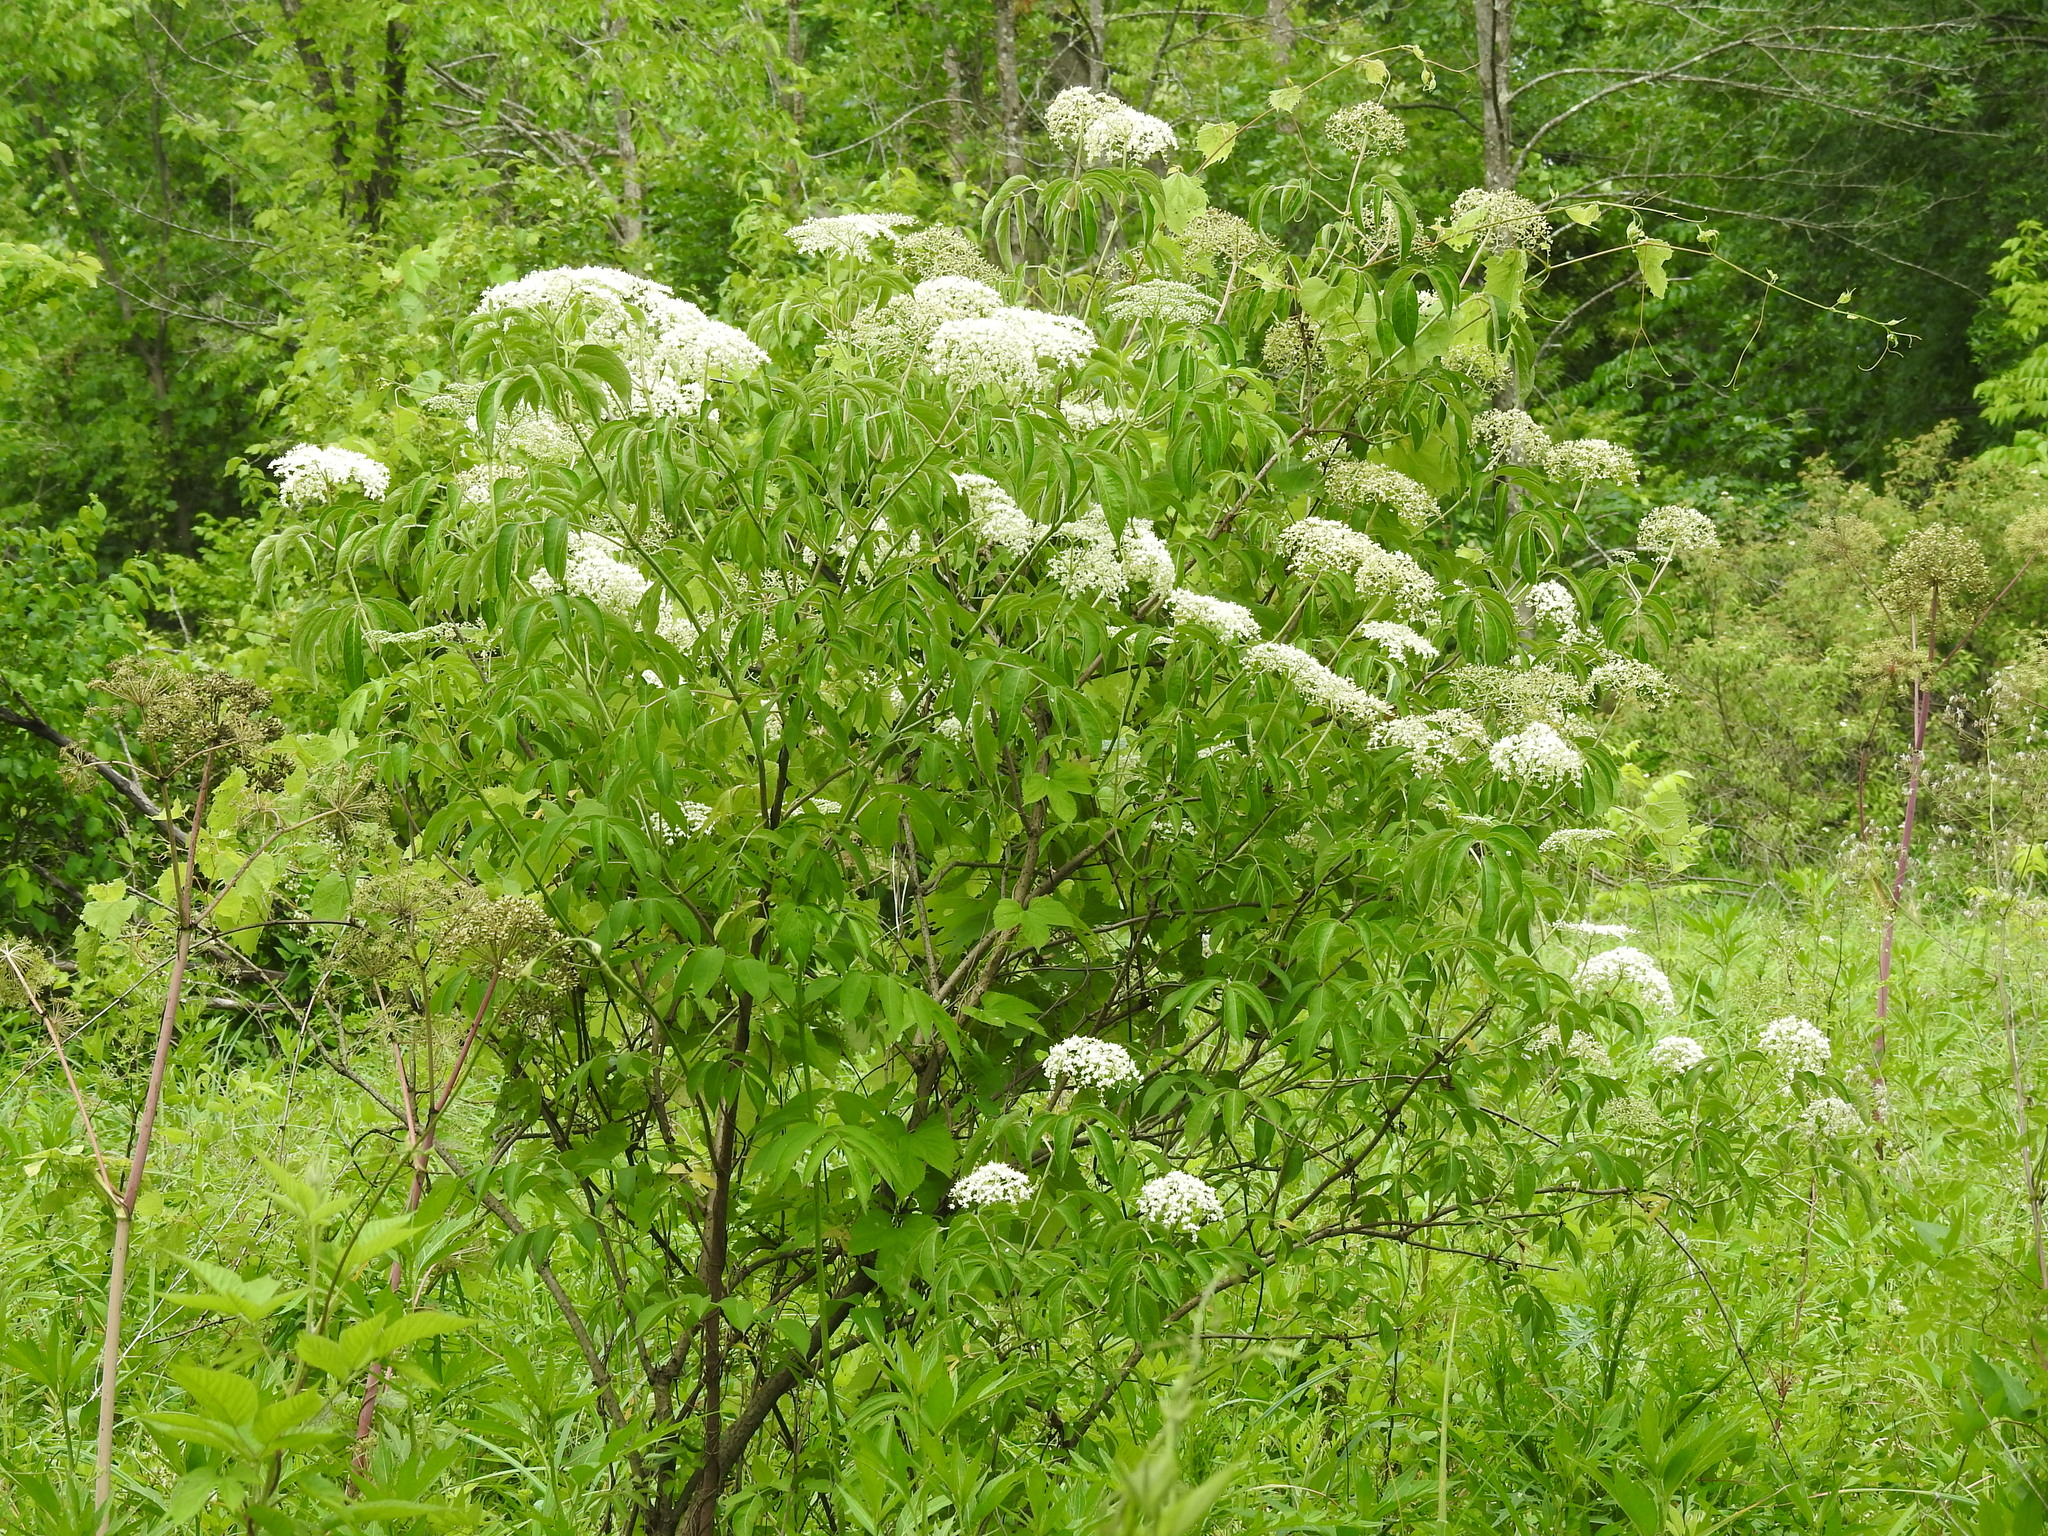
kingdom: Plantae
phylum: Tracheophyta
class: Magnoliopsida
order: Dipsacales
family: Viburnaceae
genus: Sambucus
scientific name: Sambucus canadensis
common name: American elder
